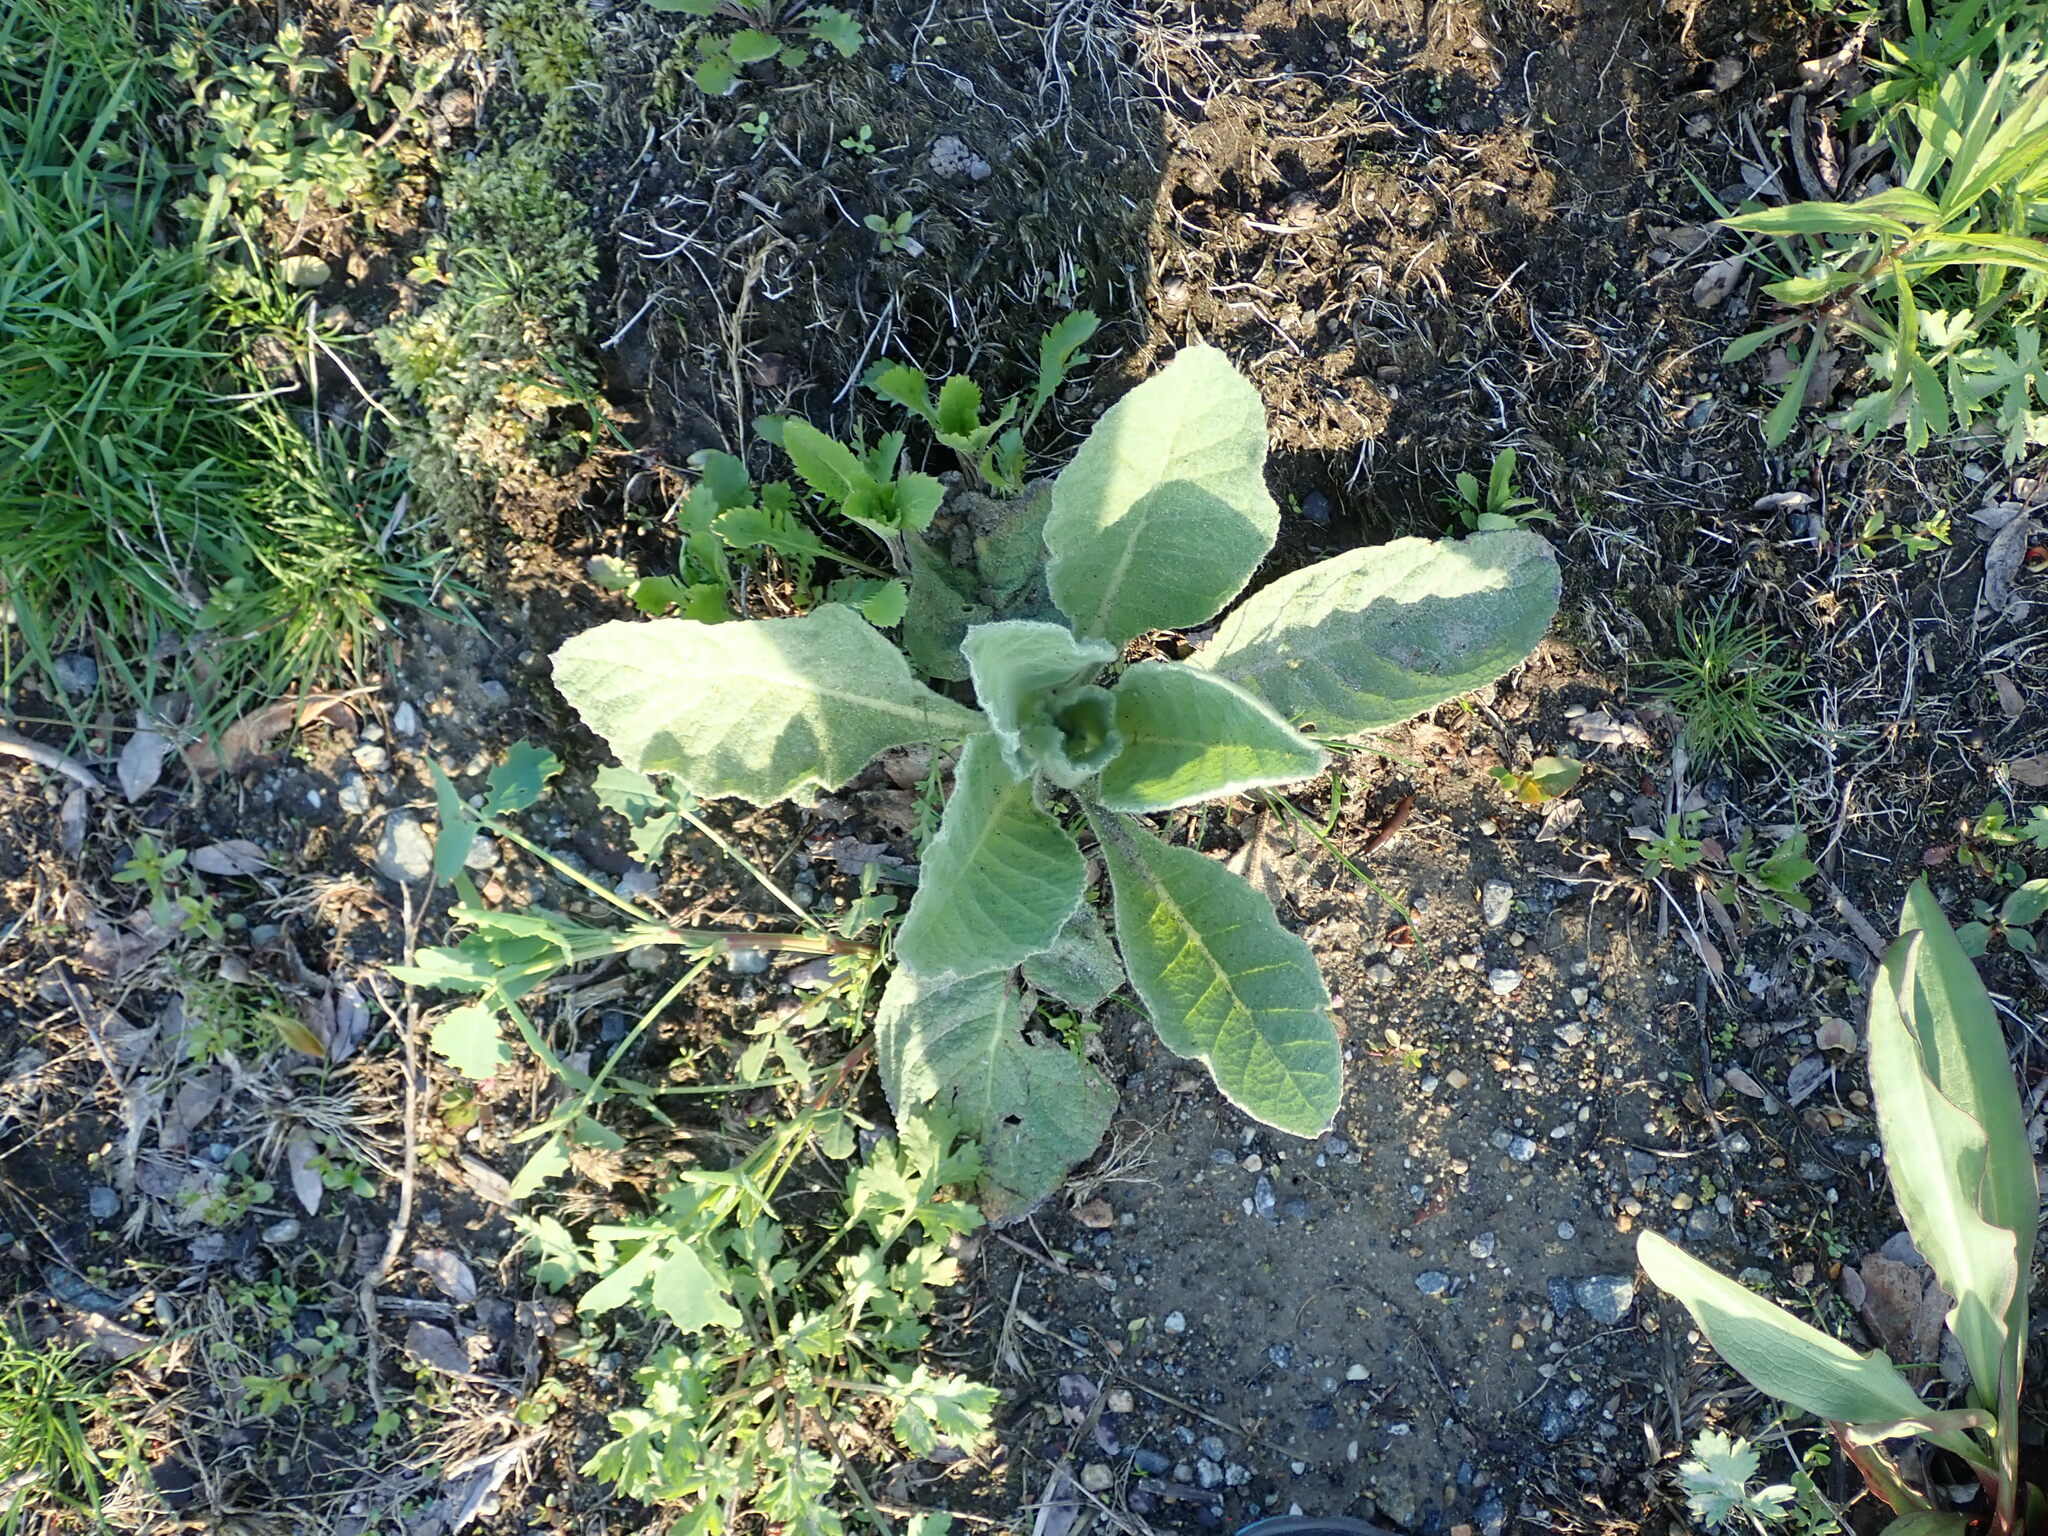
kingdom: Plantae
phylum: Tracheophyta
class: Magnoliopsida
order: Lamiales
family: Scrophulariaceae
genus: Verbascum
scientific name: Verbascum thapsus
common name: Common mullein
